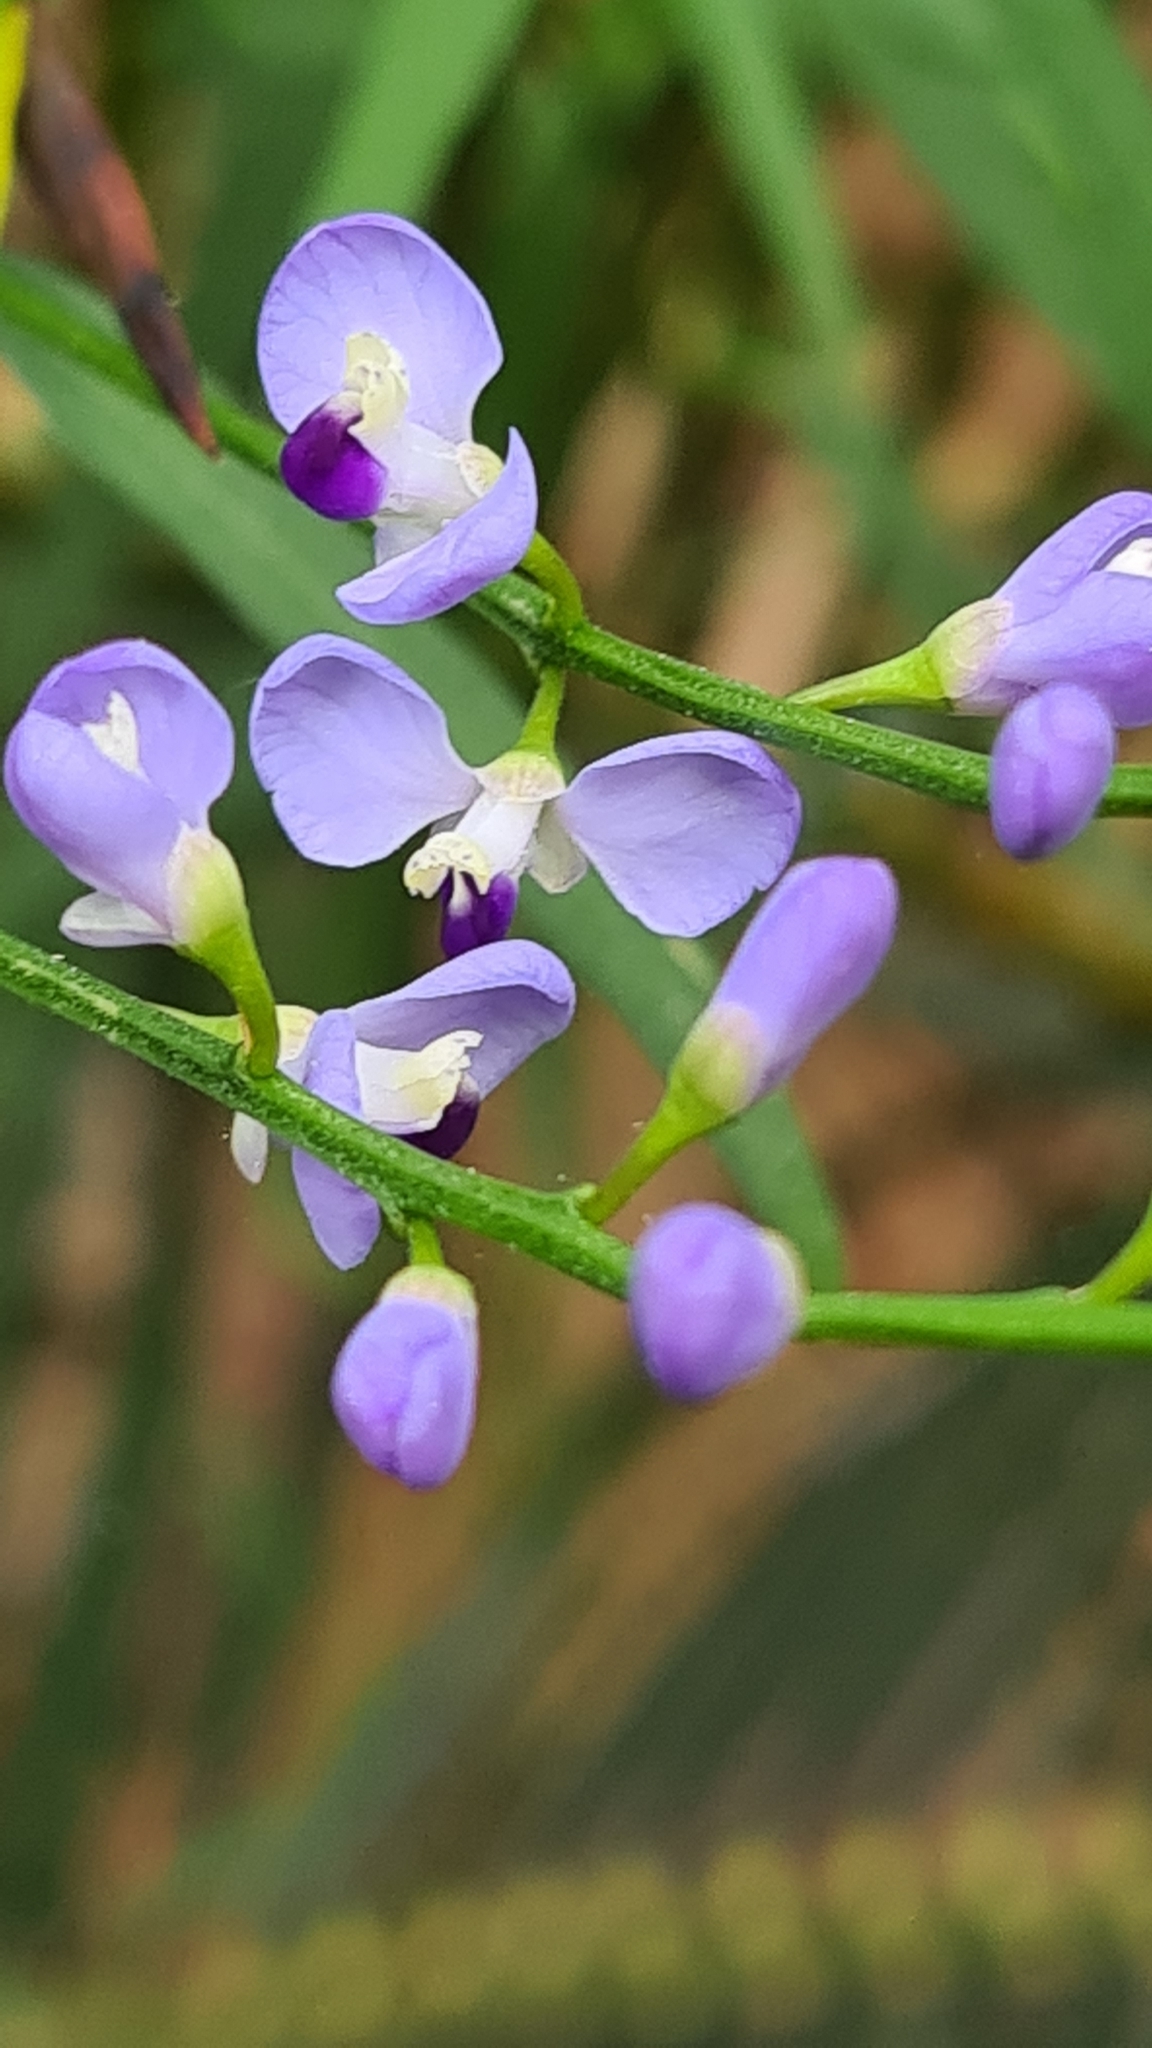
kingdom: Plantae
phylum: Tracheophyta
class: Magnoliopsida
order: Fabales
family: Polygalaceae
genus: Comesperma
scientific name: Comesperma volubile
